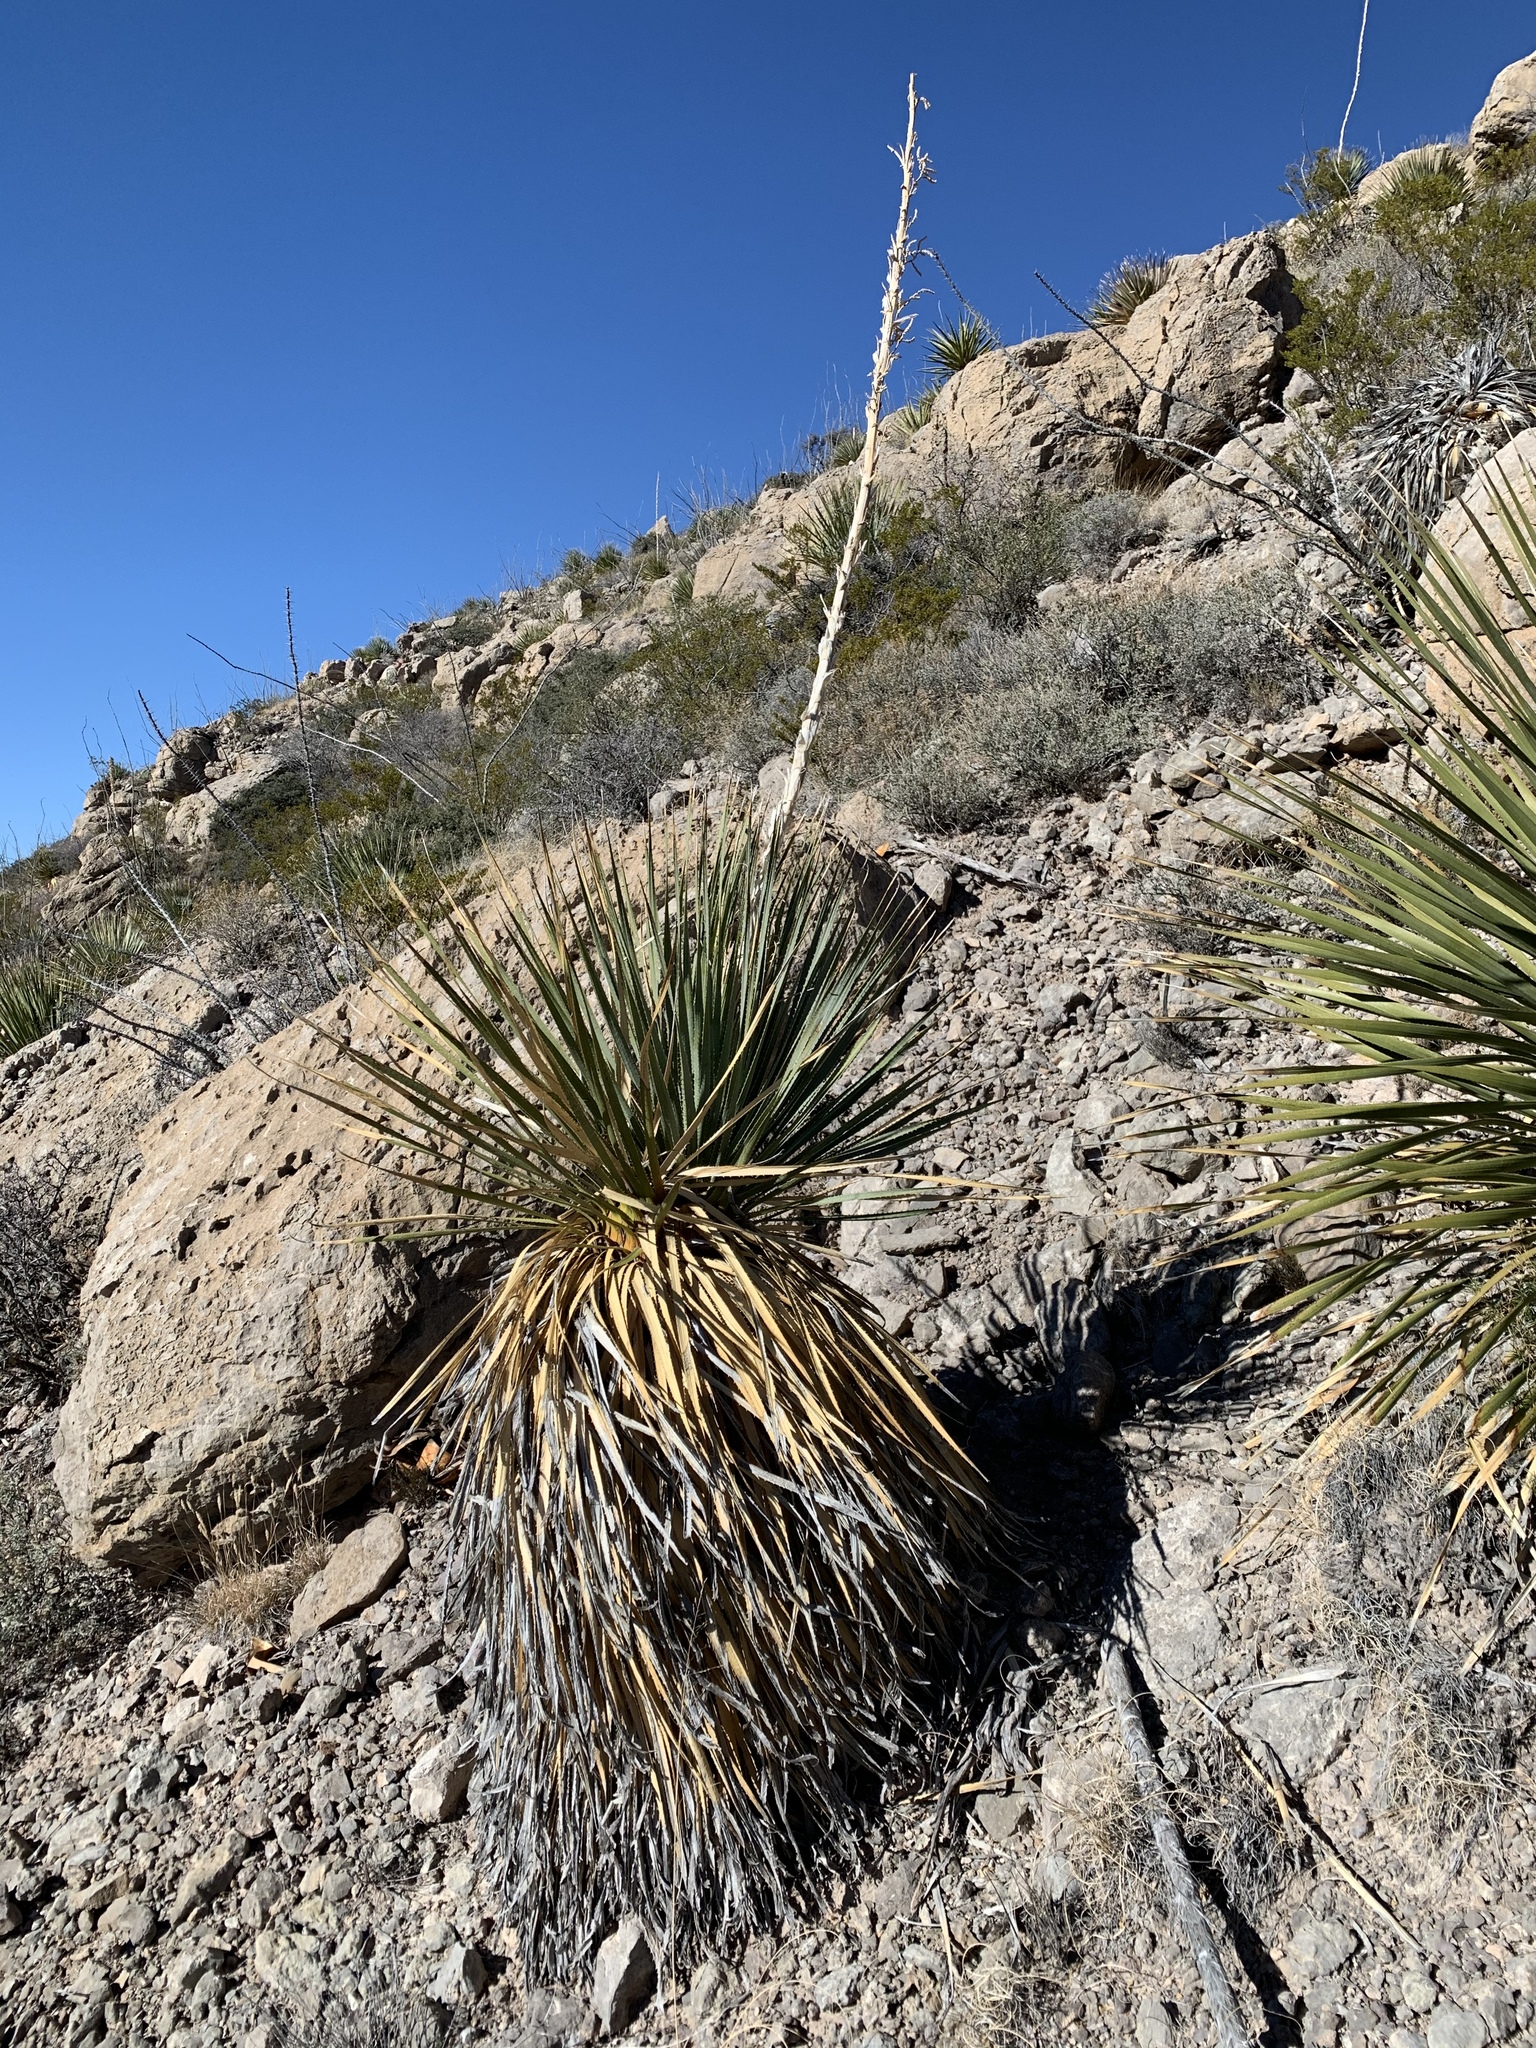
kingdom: Plantae
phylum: Tracheophyta
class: Liliopsida
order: Asparagales
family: Asparagaceae
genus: Dasylirion
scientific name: Dasylirion wheeleri
